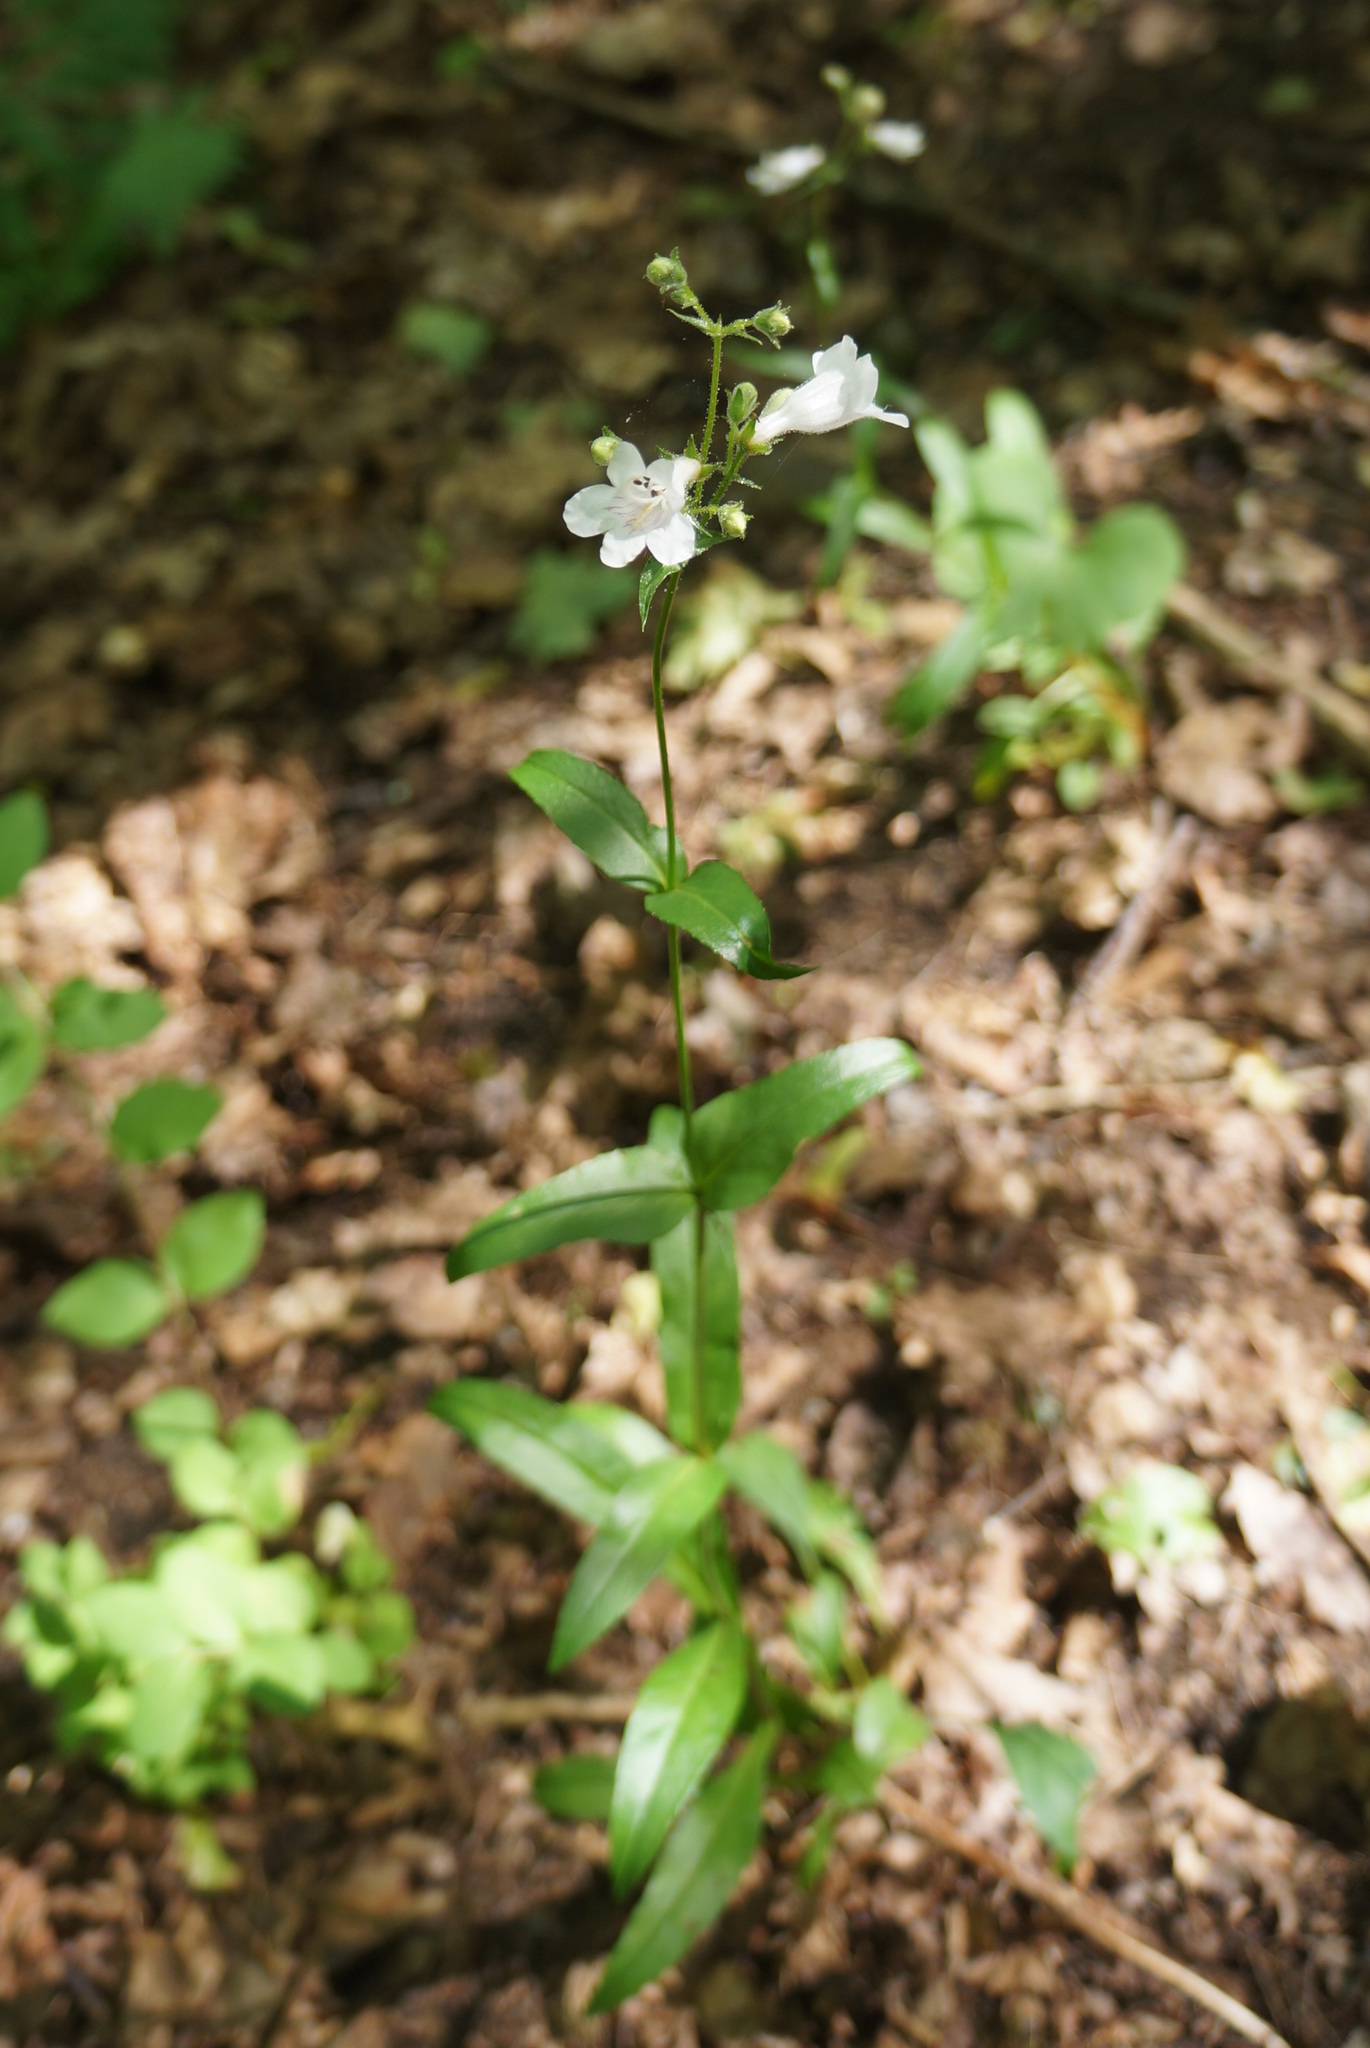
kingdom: Plantae
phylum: Tracheophyta
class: Magnoliopsida
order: Lamiales
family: Plantaginaceae
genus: Penstemon
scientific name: Penstemon digitalis
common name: Foxglove beardtongue
